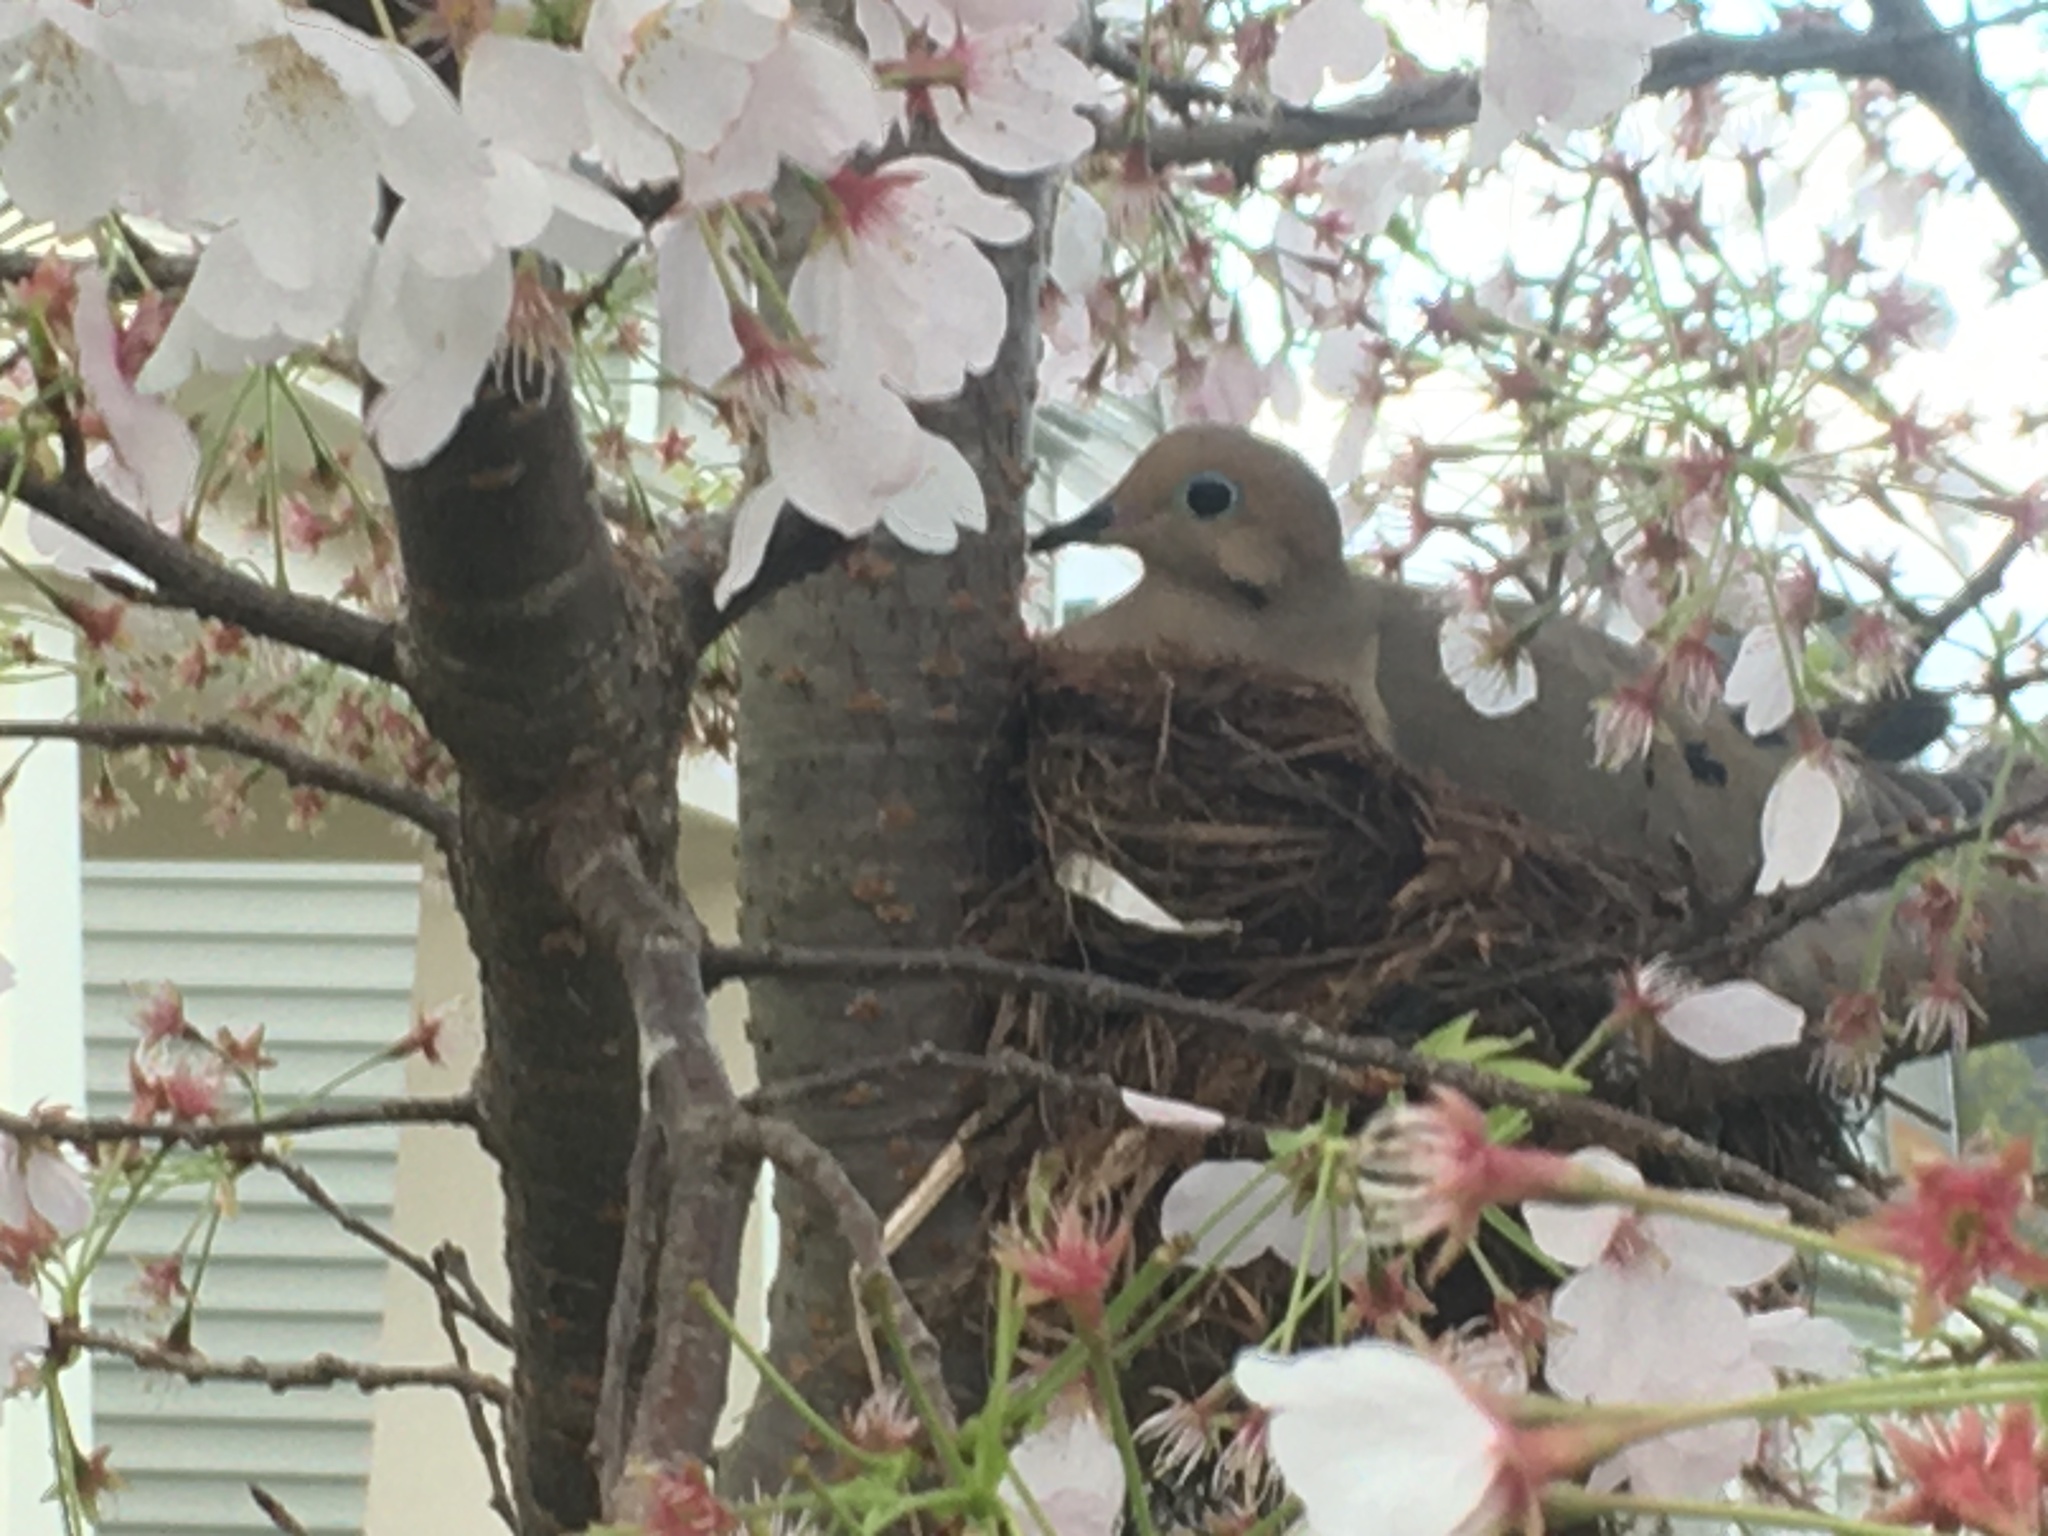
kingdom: Animalia
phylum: Chordata
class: Aves
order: Columbiformes
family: Columbidae
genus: Zenaida
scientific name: Zenaida macroura
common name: Mourning dove
